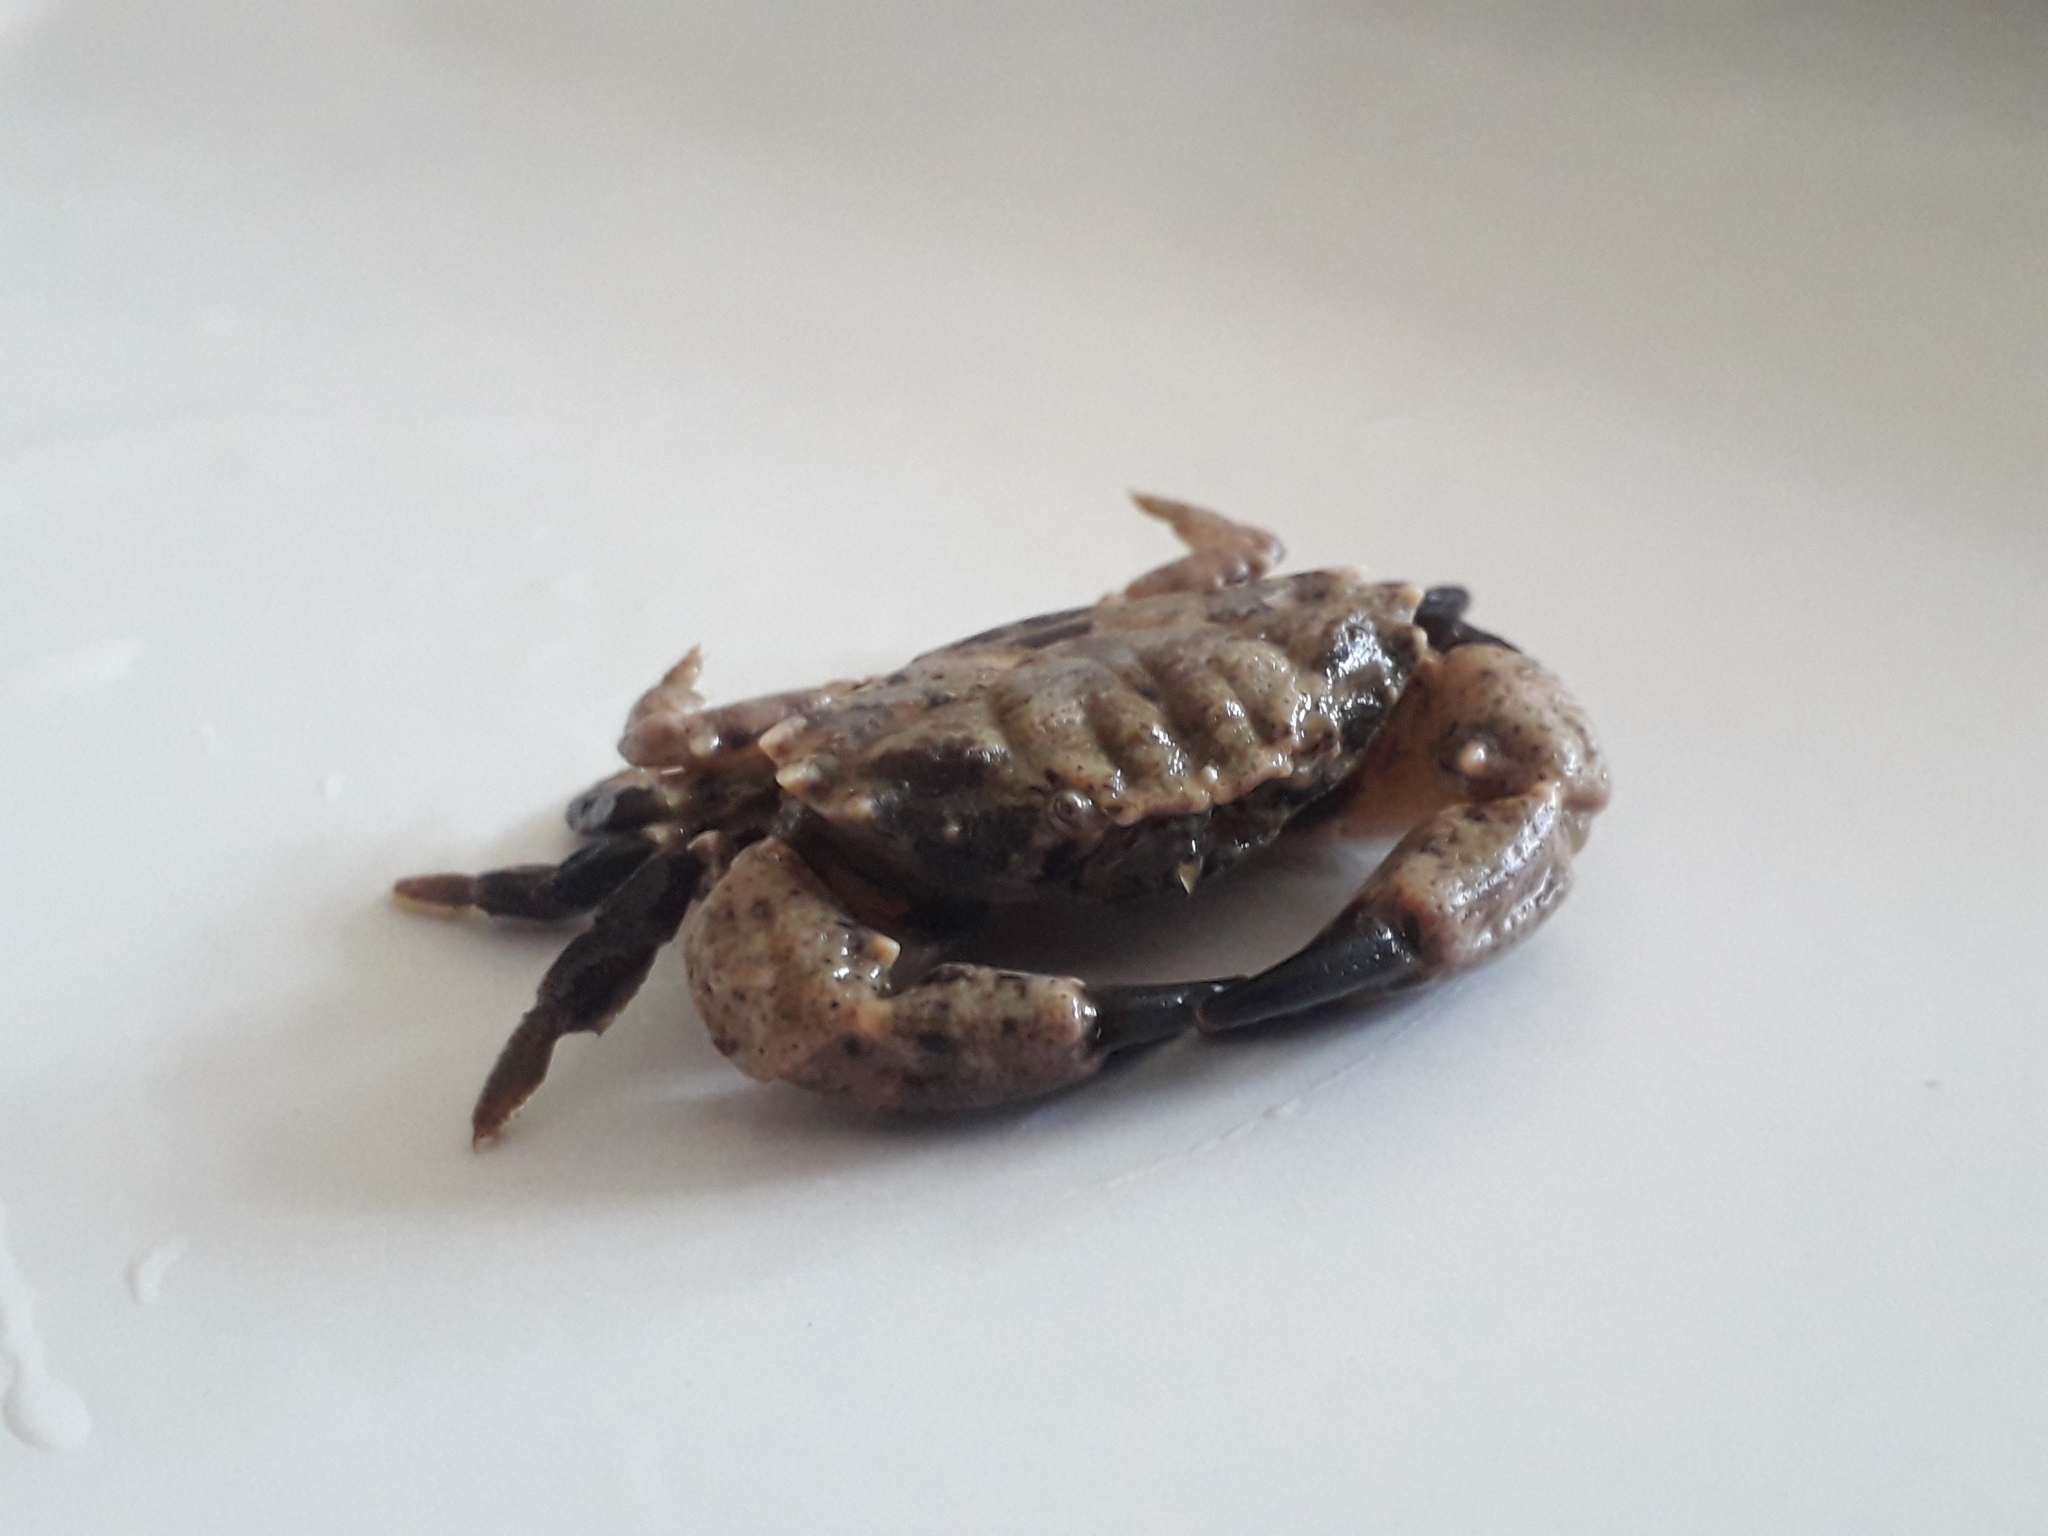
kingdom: Animalia
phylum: Arthropoda
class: Malacostraca
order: Decapoda
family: Xanthidae
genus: Xantho
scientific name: Xantho hydrophilus
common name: Montagu's crab
